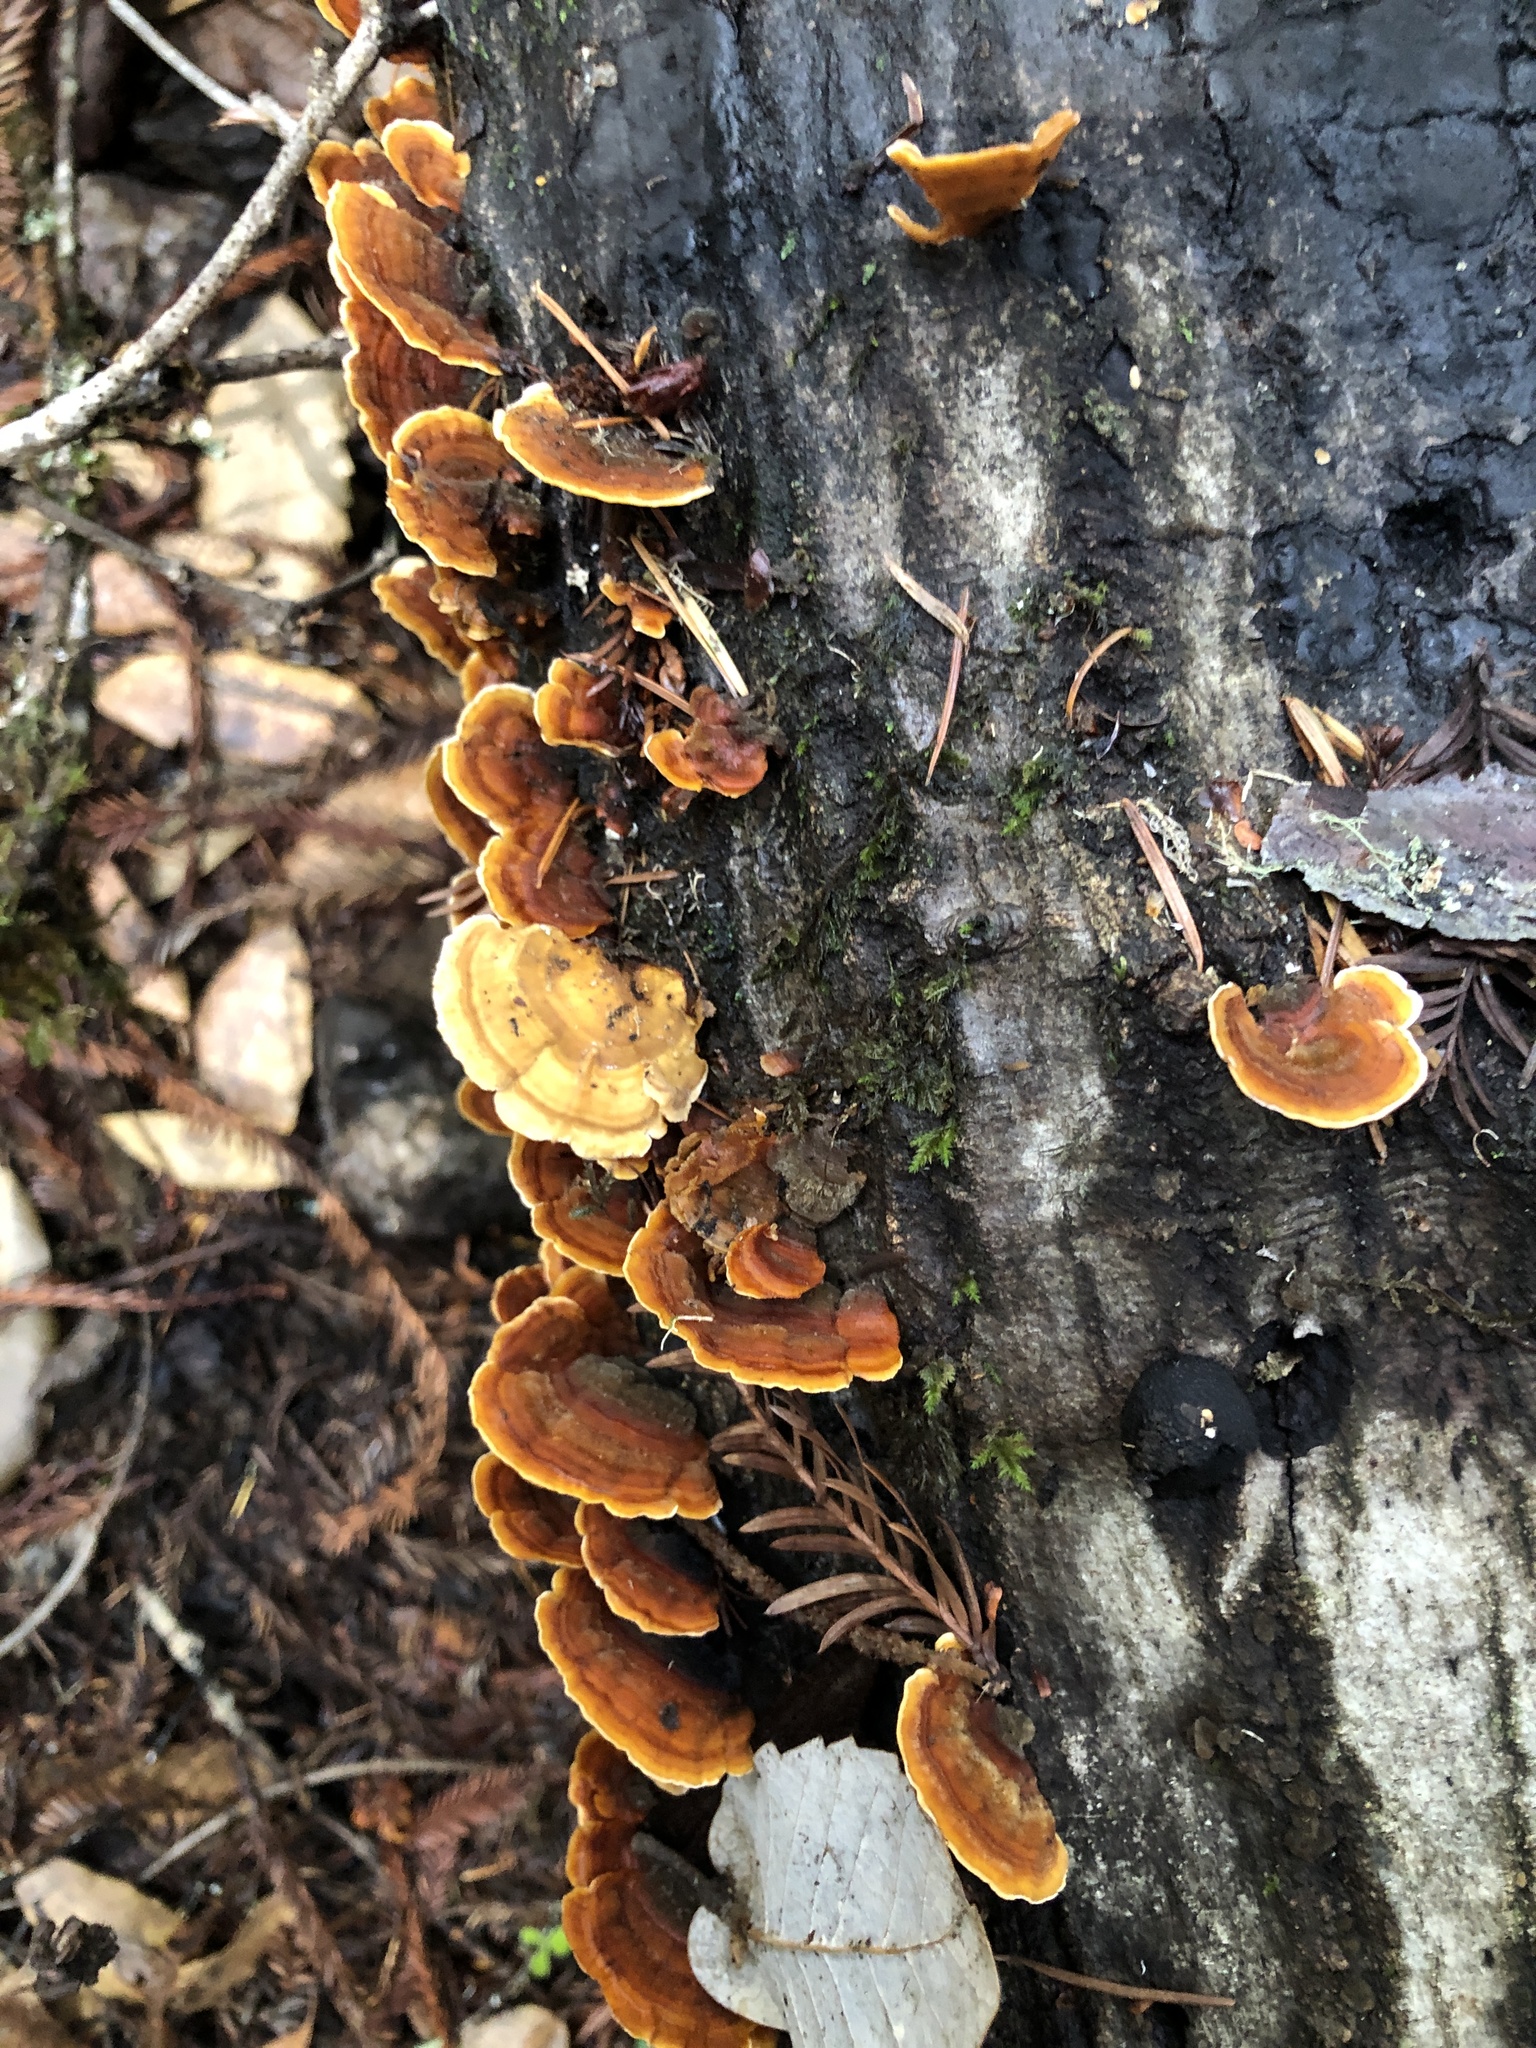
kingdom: Fungi
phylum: Basidiomycota
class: Agaricomycetes
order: Russulales
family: Stereaceae
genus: Stereum
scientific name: Stereum hirsutum
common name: Hairy curtain crust
